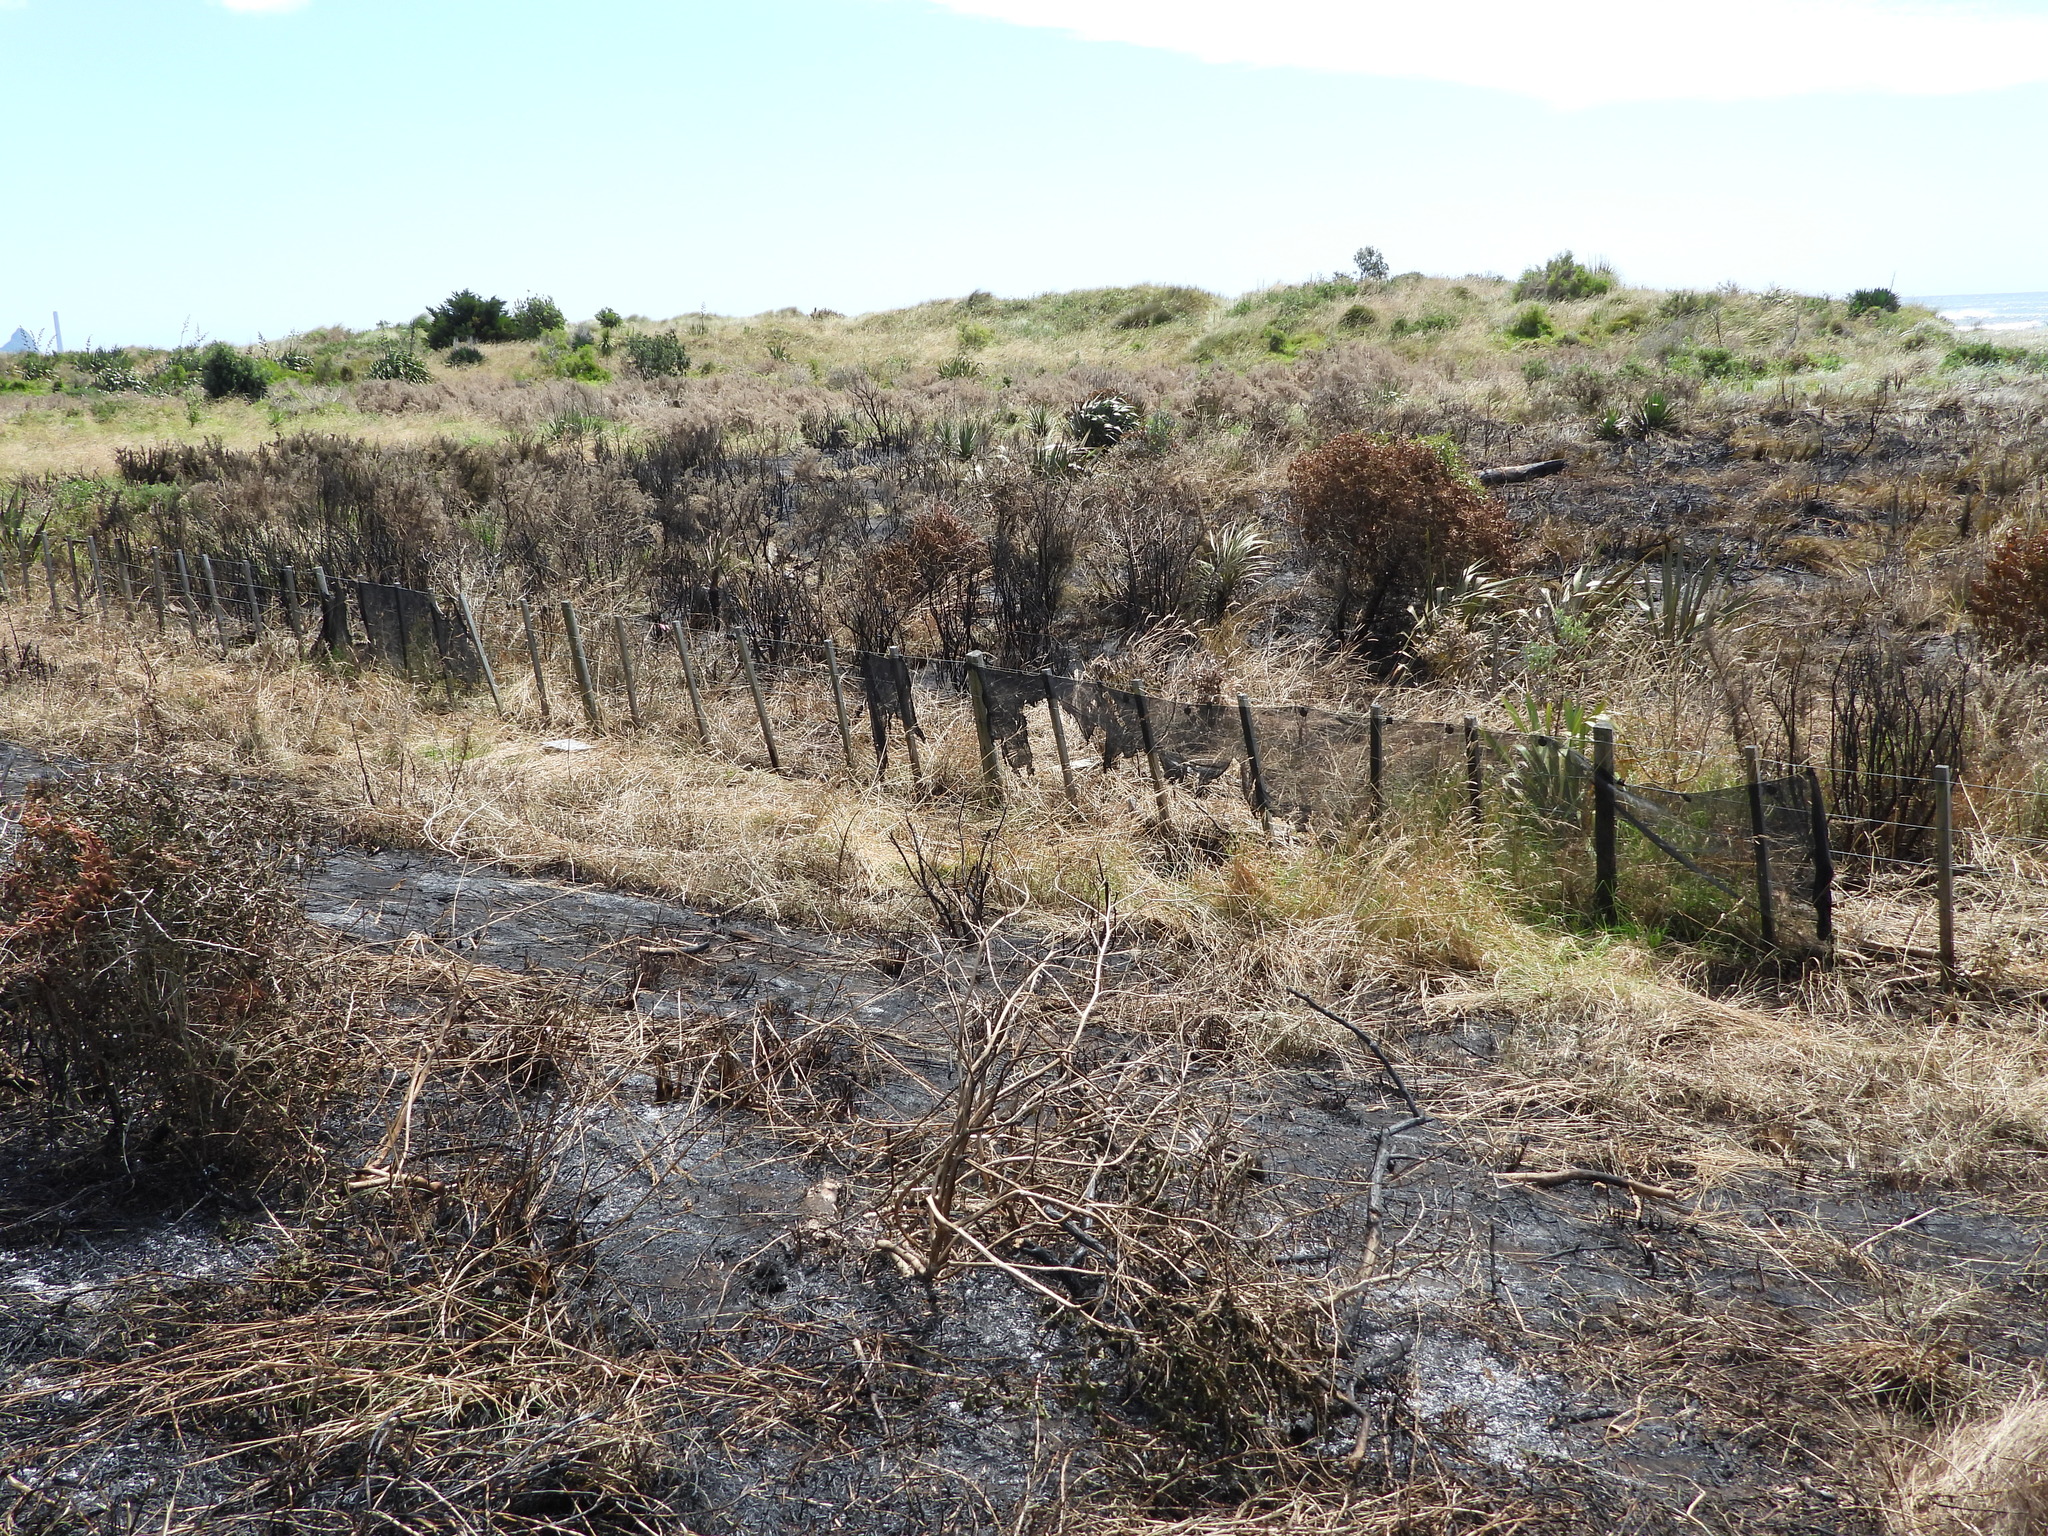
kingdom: Animalia
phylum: Chordata
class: Aves
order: Charadriiformes
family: Charadriidae
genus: Anarhynchus
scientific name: Anarhynchus
